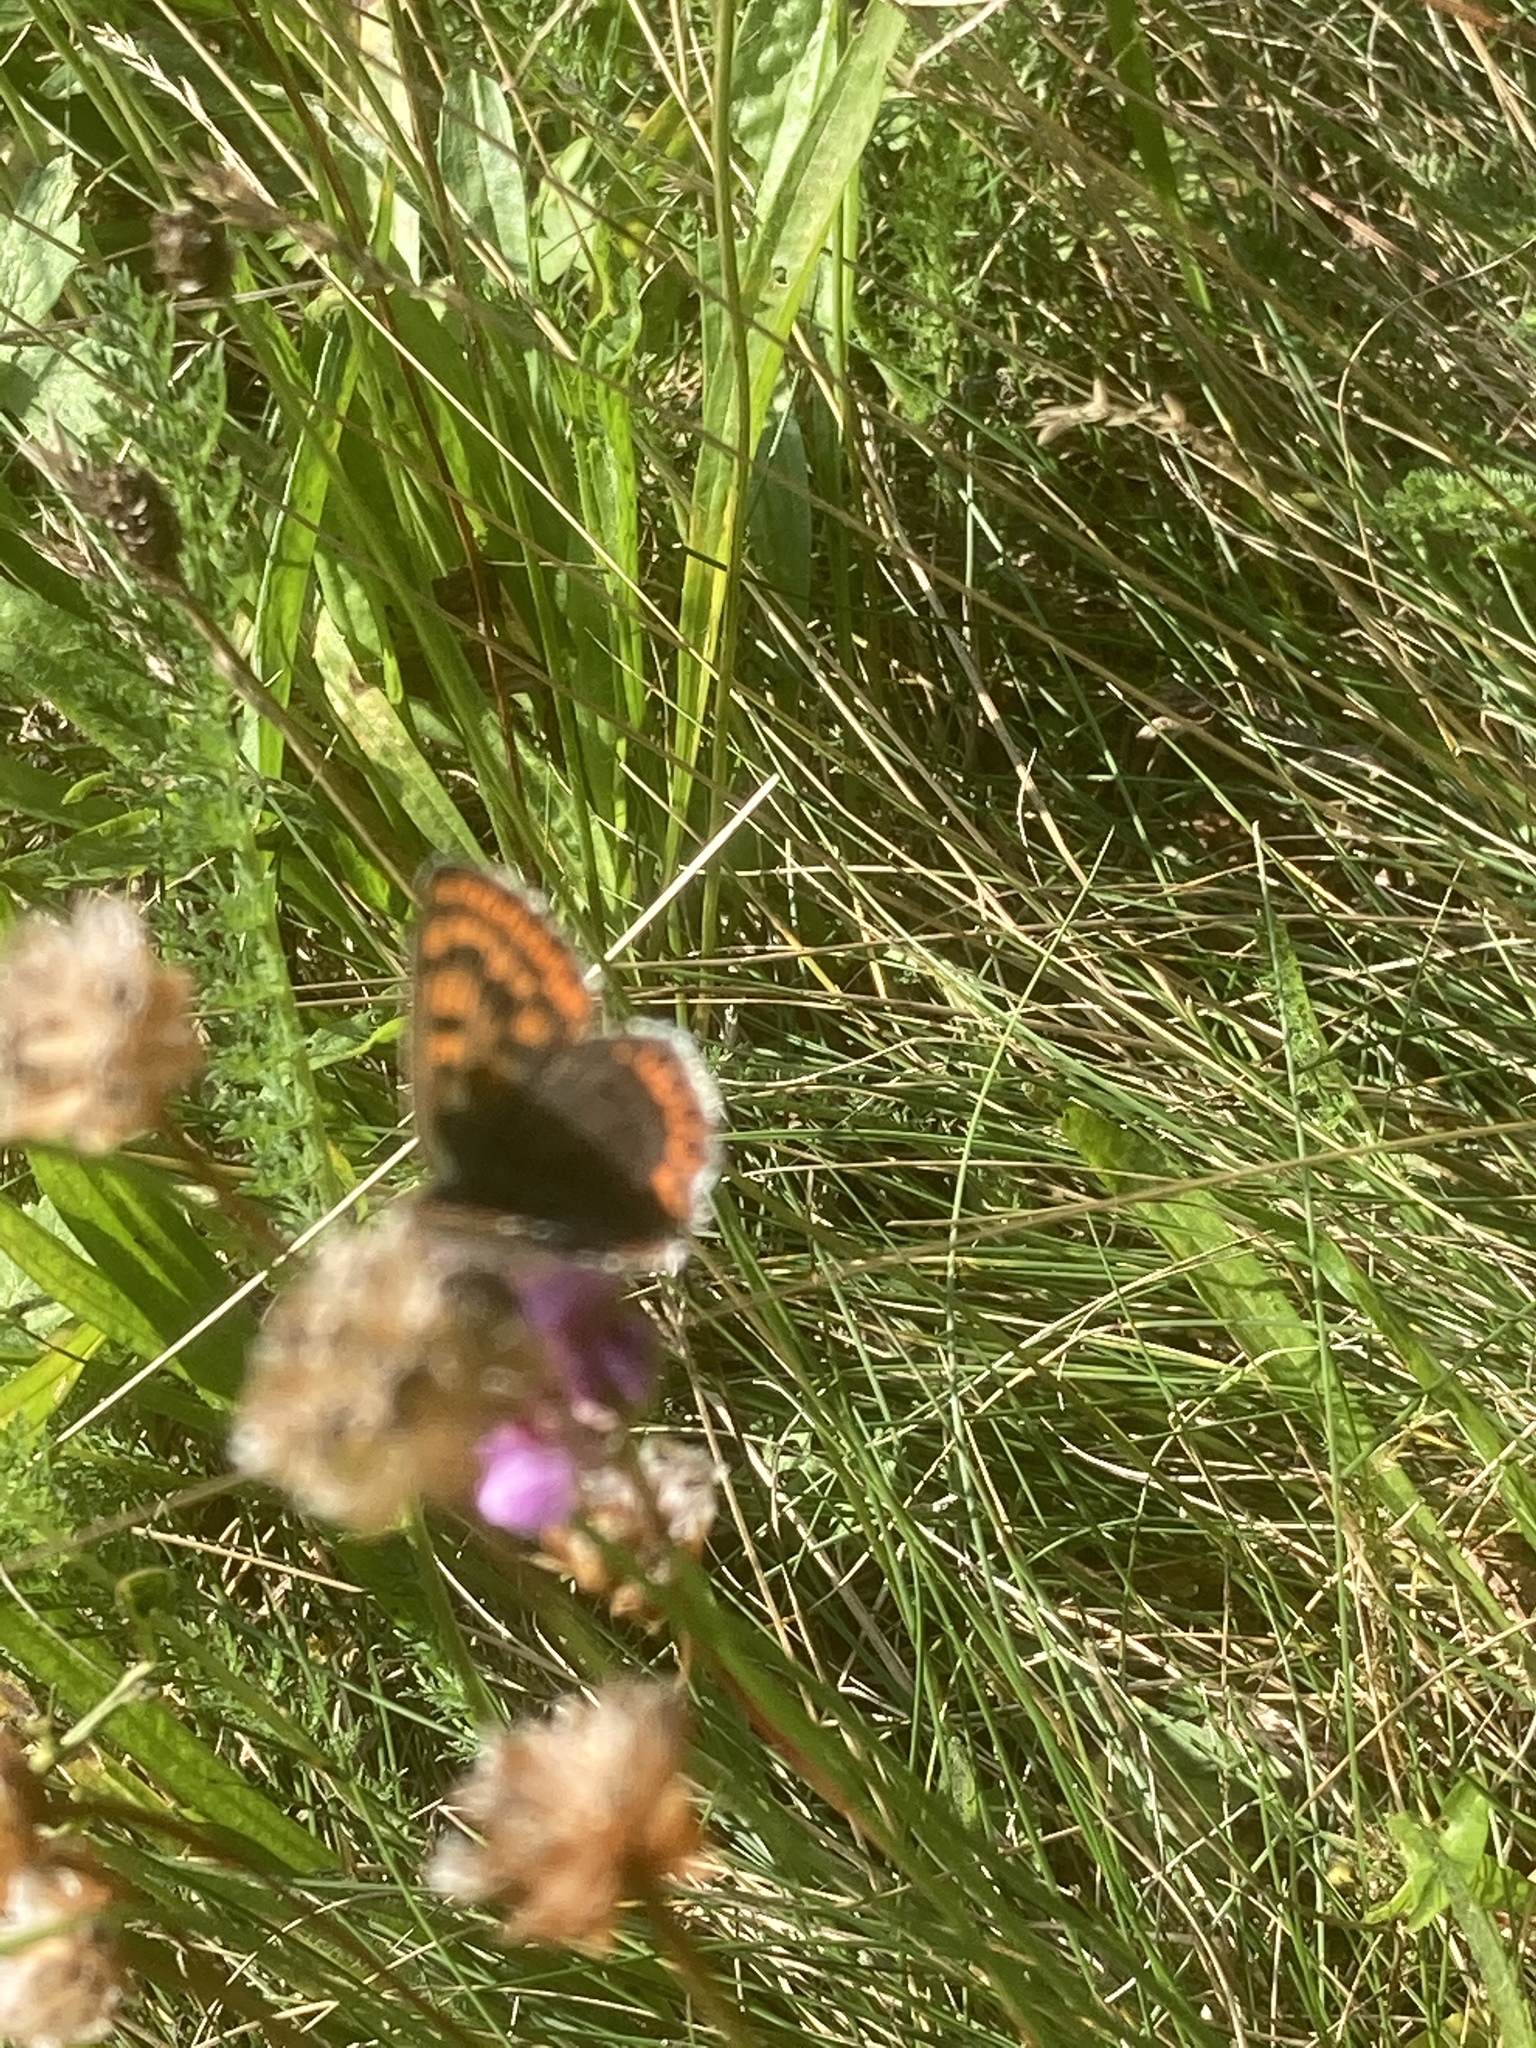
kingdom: Animalia
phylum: Arthropoda
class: Insecta
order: Lepidoptera
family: Lycaenidae
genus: Loweia
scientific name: Loweia tityrus
